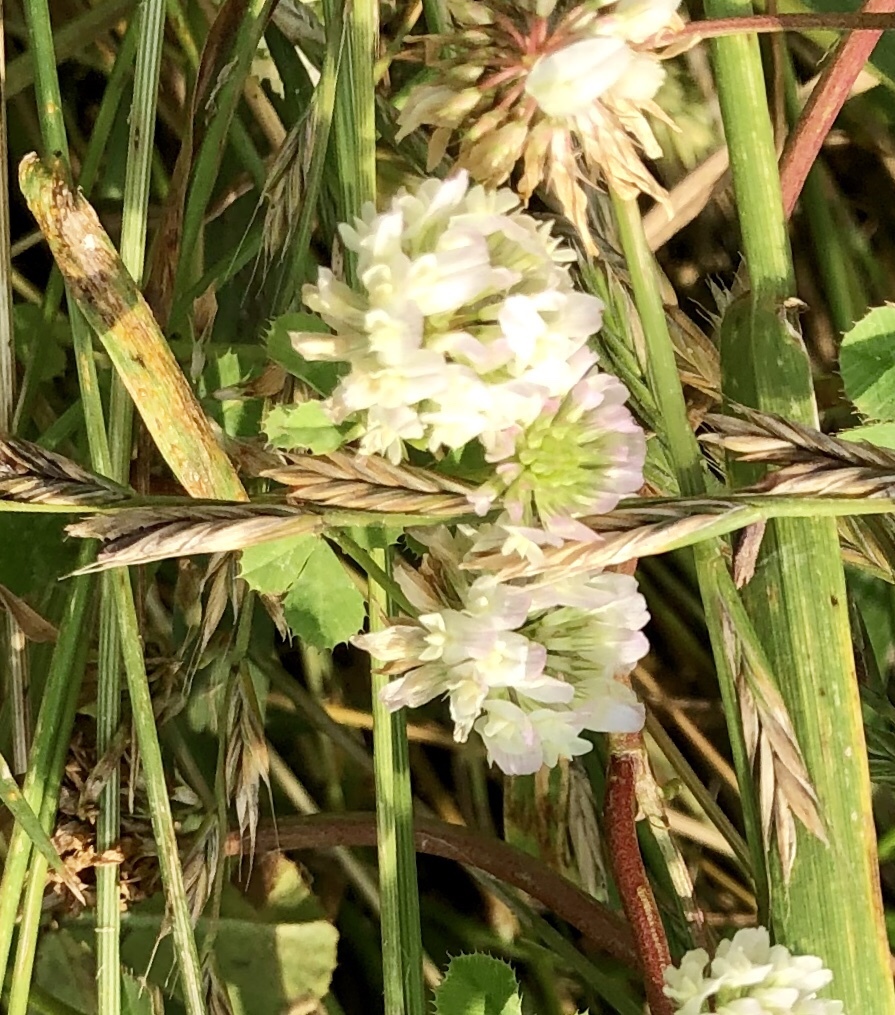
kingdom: Plantae
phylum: Tracheophyta
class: Magnoliopsida
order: Fabales
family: Fabaceae
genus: Trifolium
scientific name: Trifolium repens
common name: White clover
